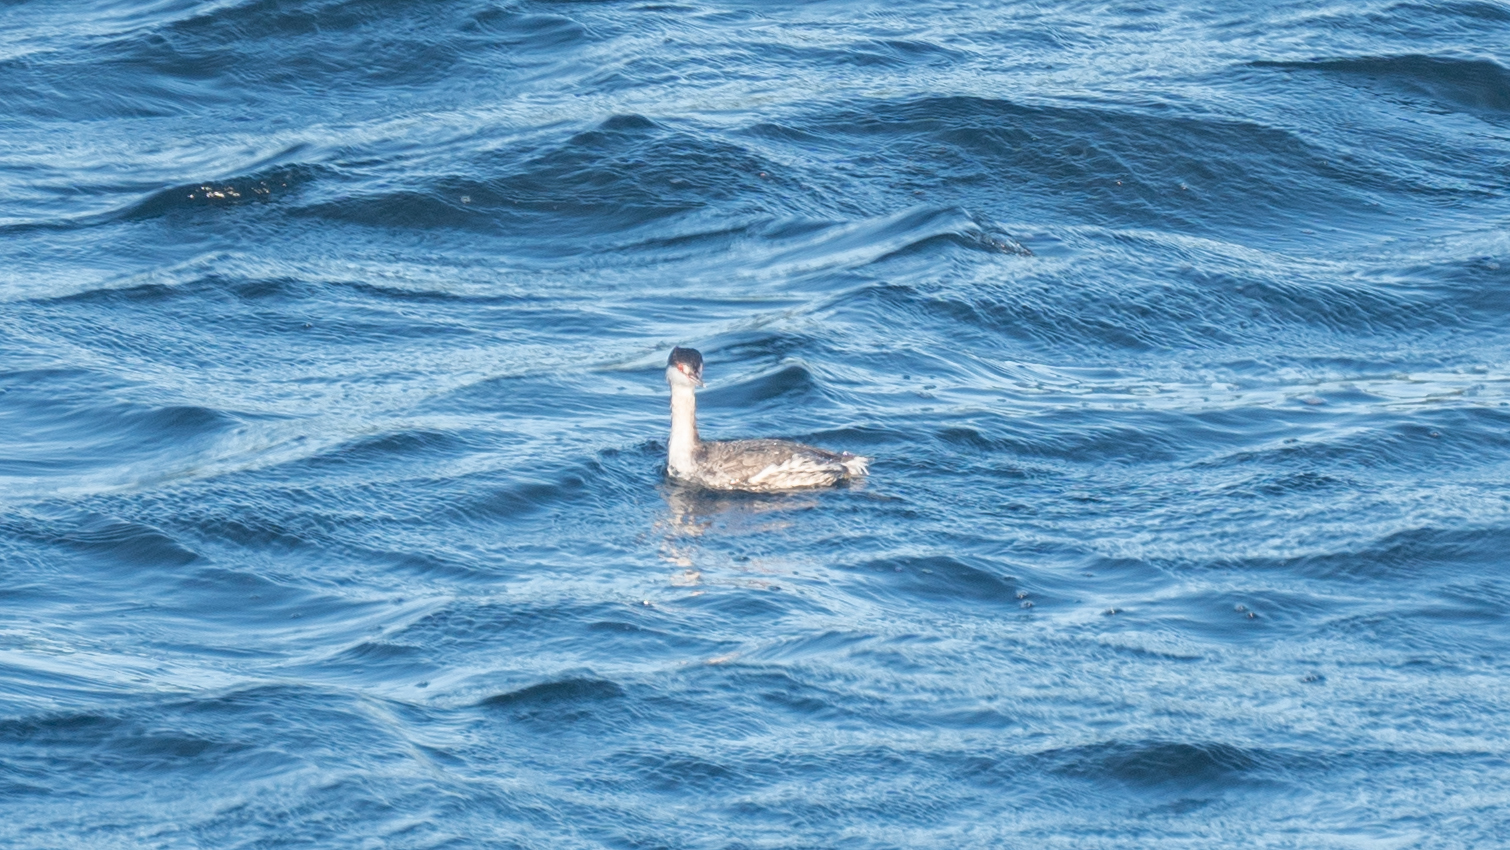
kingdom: Animalia
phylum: Chordata
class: Aves
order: Podicipediformes
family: Podicipedidae
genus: Podiceps
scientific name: Podiceps auritus
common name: Horned grebe
